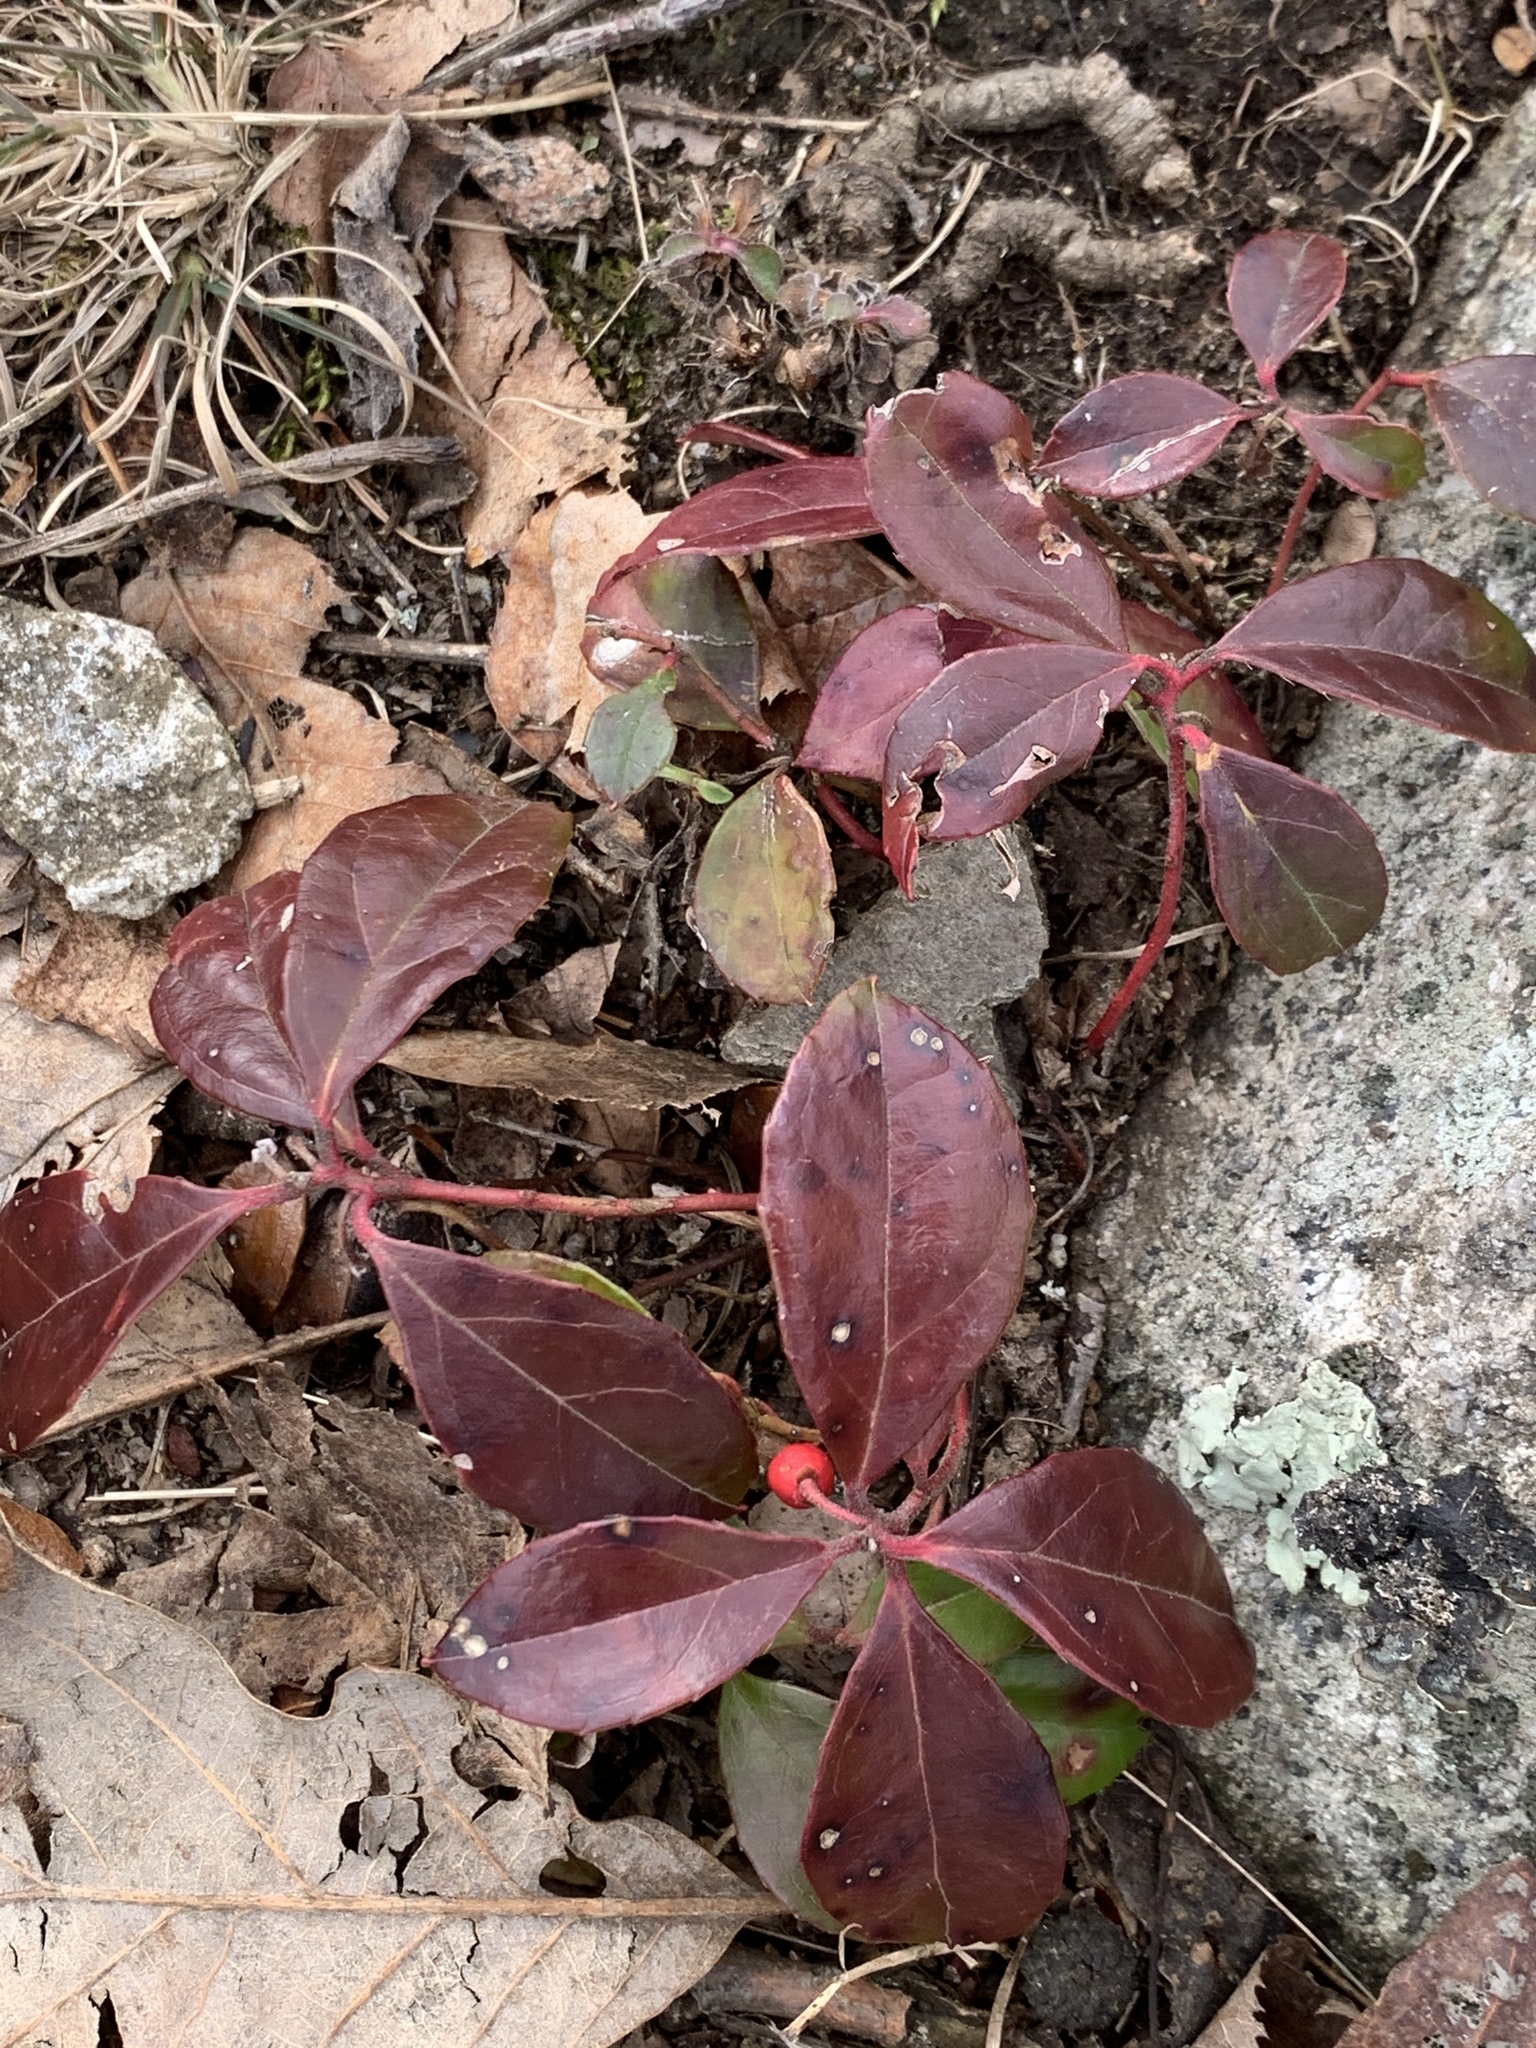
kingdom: Plantae
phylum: Tracheophyta
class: Magnoliopsida
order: Ericales
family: Ericaceae
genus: Gaultheria
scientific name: Gaultheria procumbens
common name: Checkerberry
